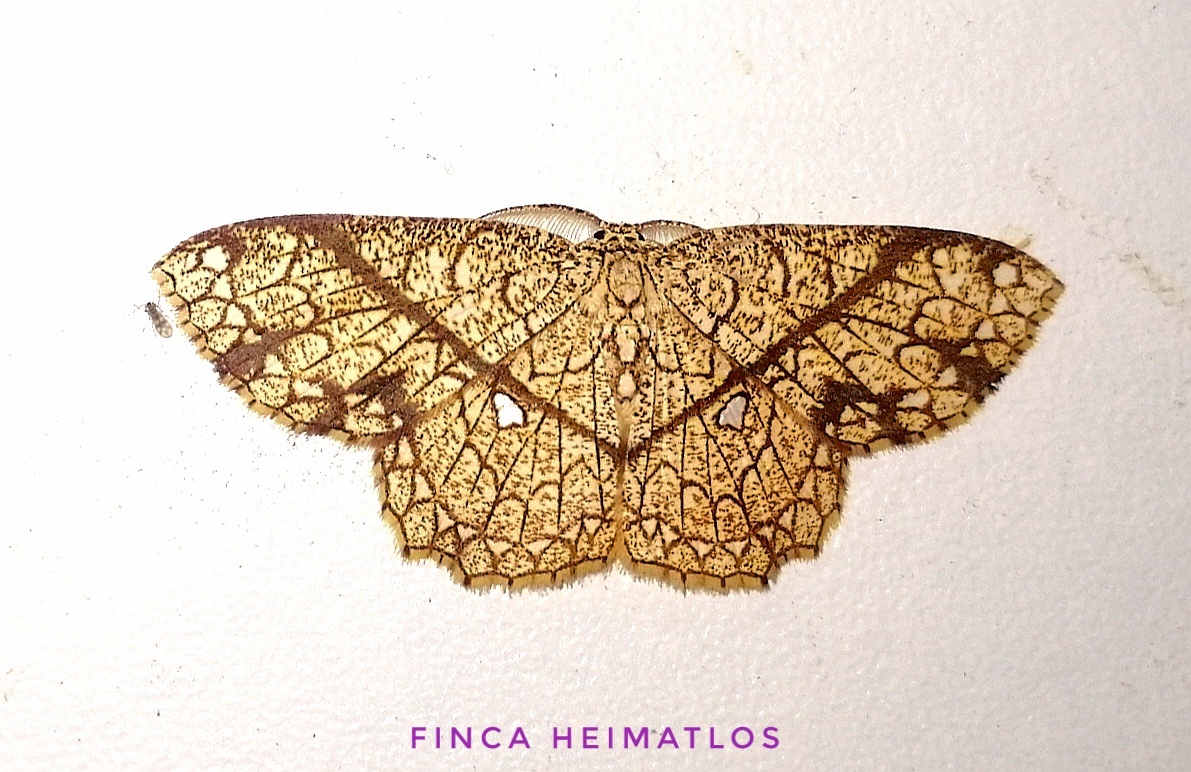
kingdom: Animalia
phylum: Arthropoda
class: Insecta
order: Lepidoptera
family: Geometridae
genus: Cyclophora
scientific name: Cyclophora insigniata
